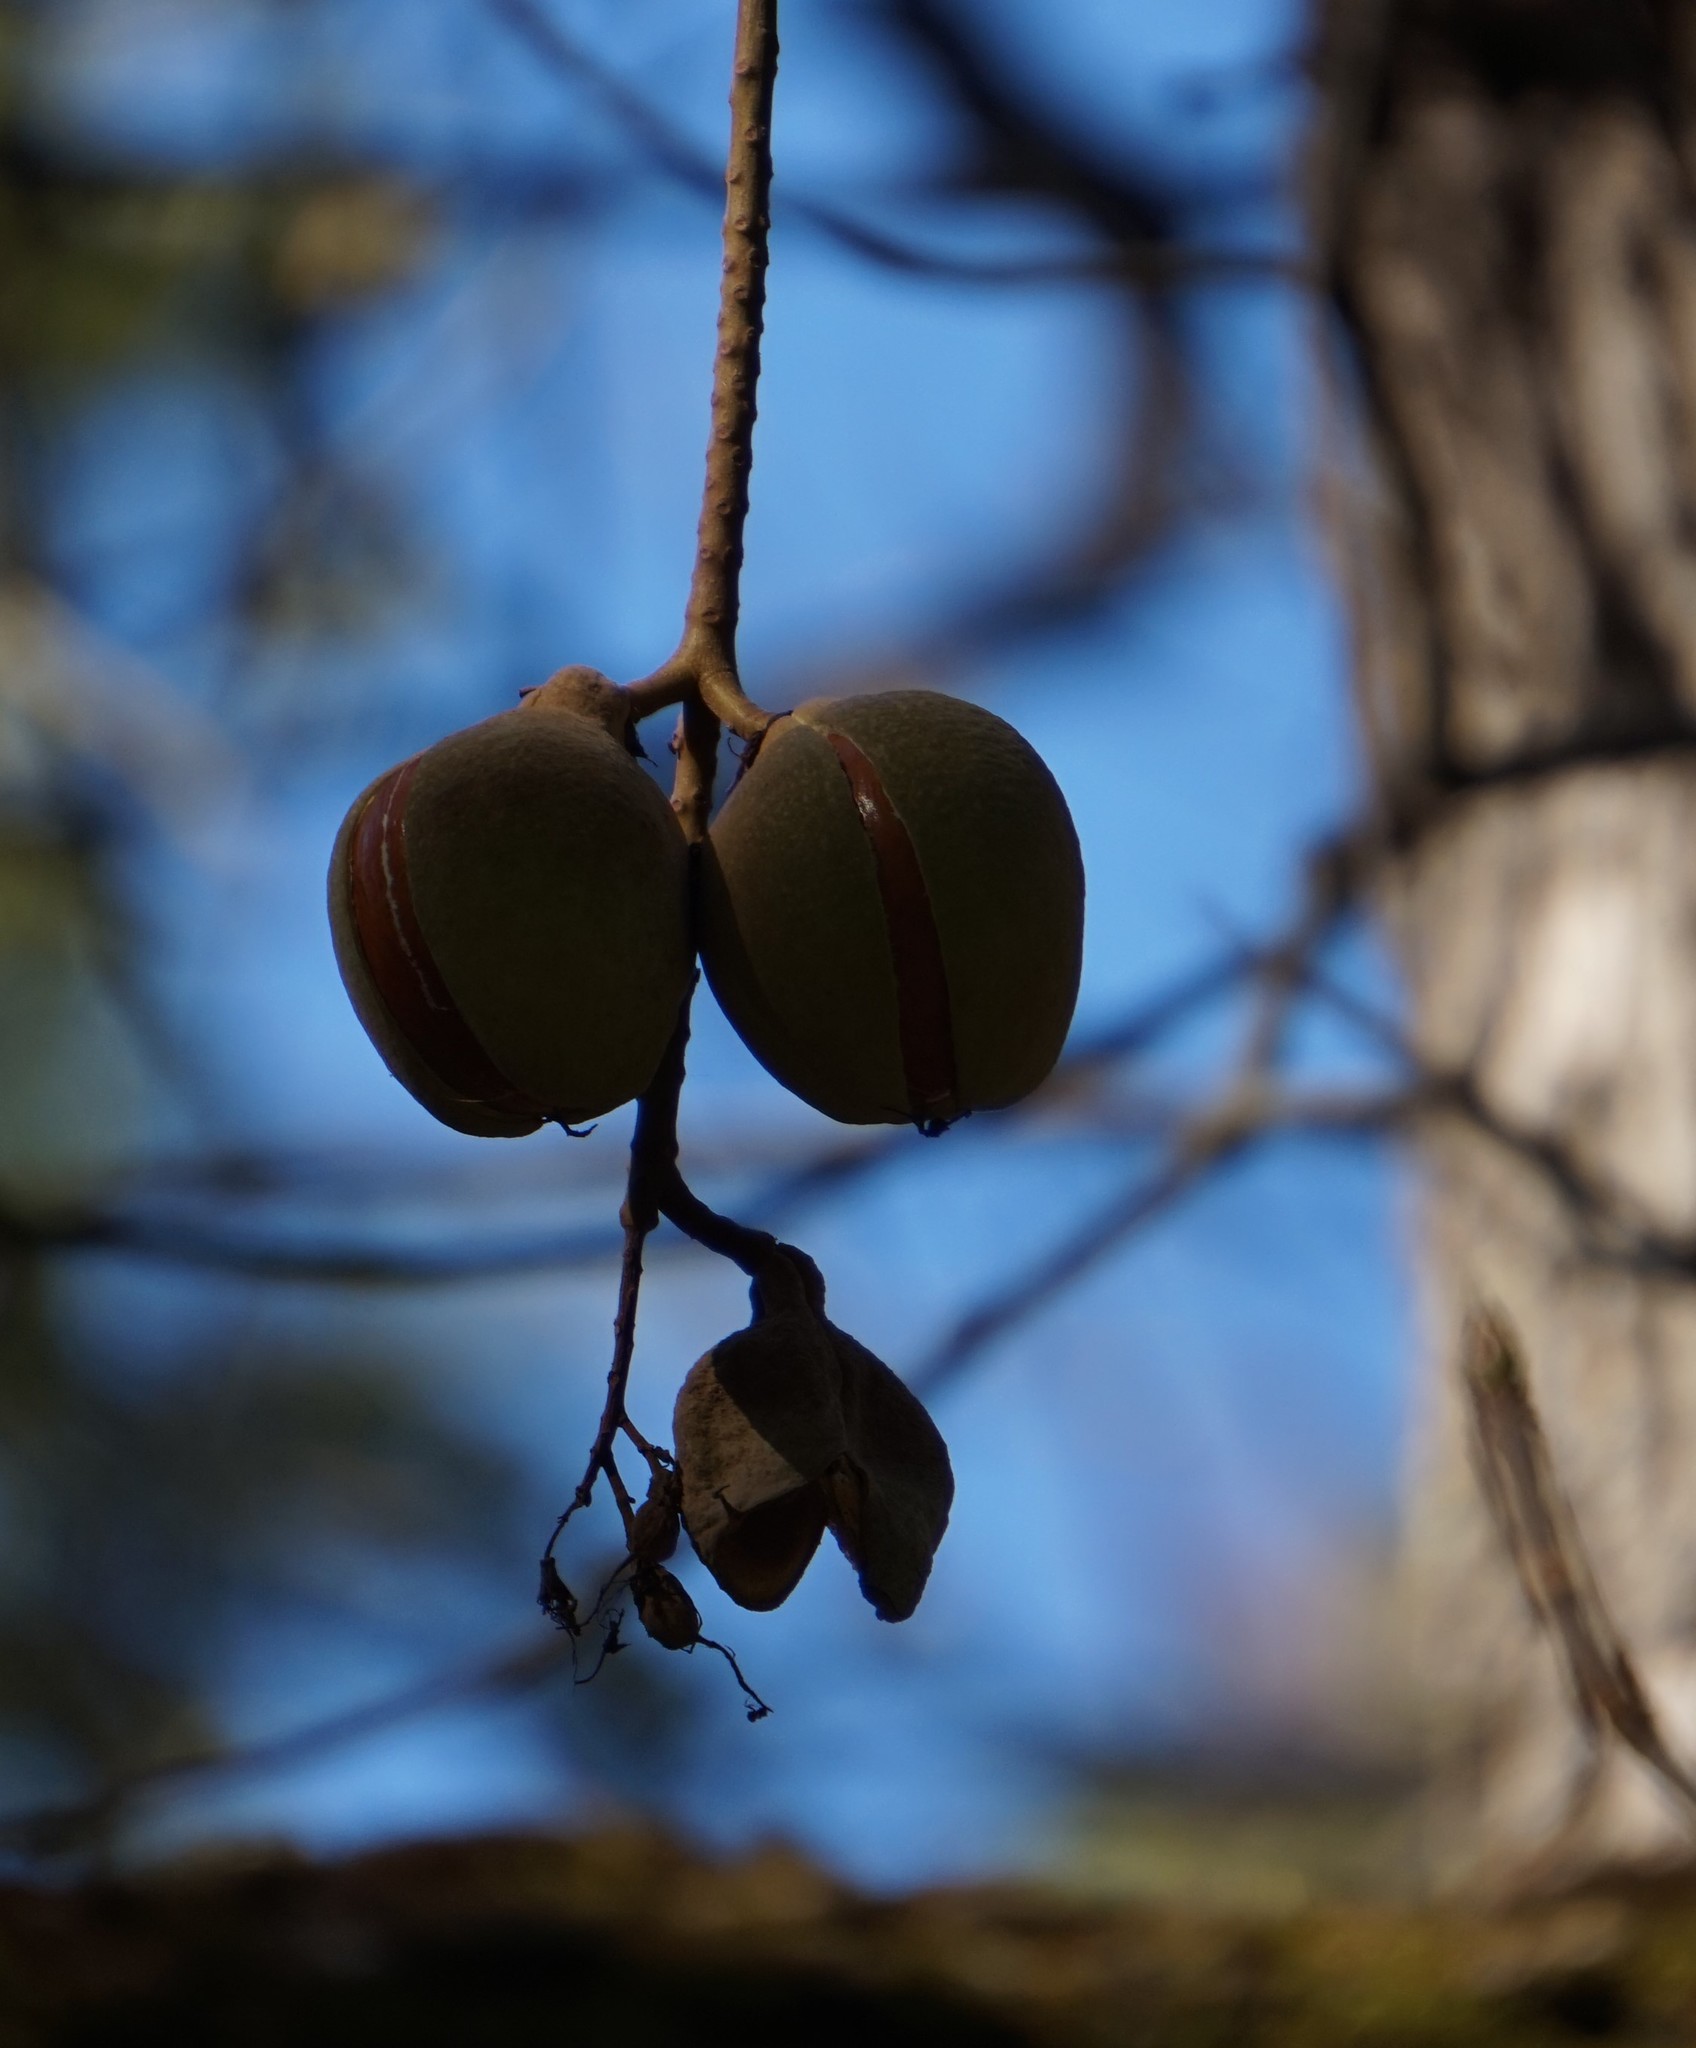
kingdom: Plantae
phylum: Tracheophyta
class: Magnoliopsida
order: Sapindales
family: Sapindaceae
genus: Aesculus
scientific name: Aesculus californica
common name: California buckeye
